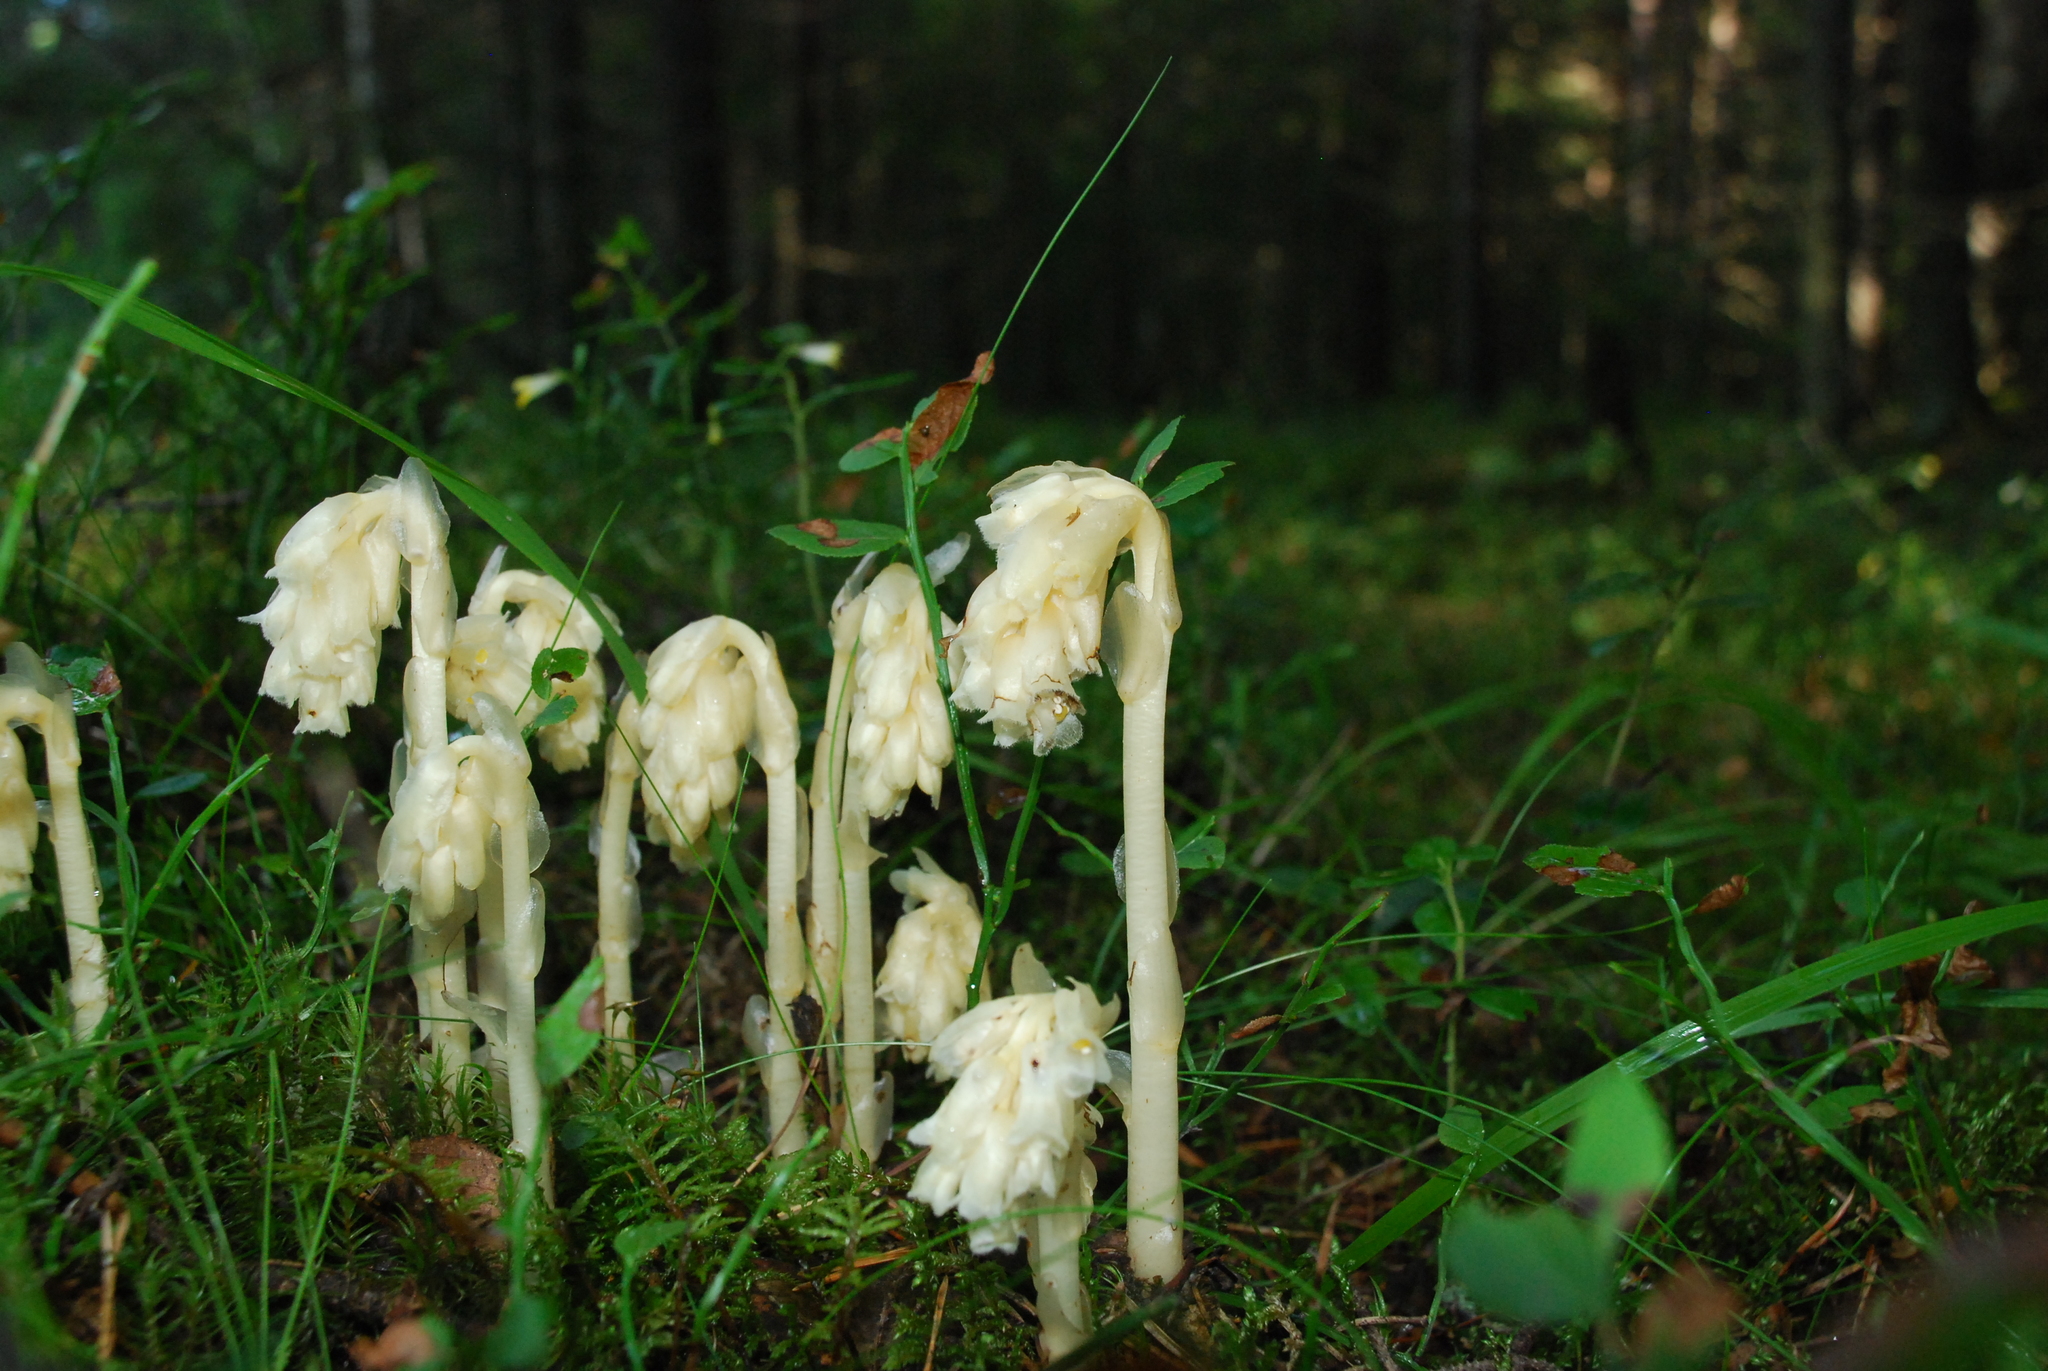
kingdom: Plantae
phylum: Tracheophyta
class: Magnoliopsida
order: Ericales
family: Ericaceae
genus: Hypopitys
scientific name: Hypopitys monotropa
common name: Yellow bird's-nest
